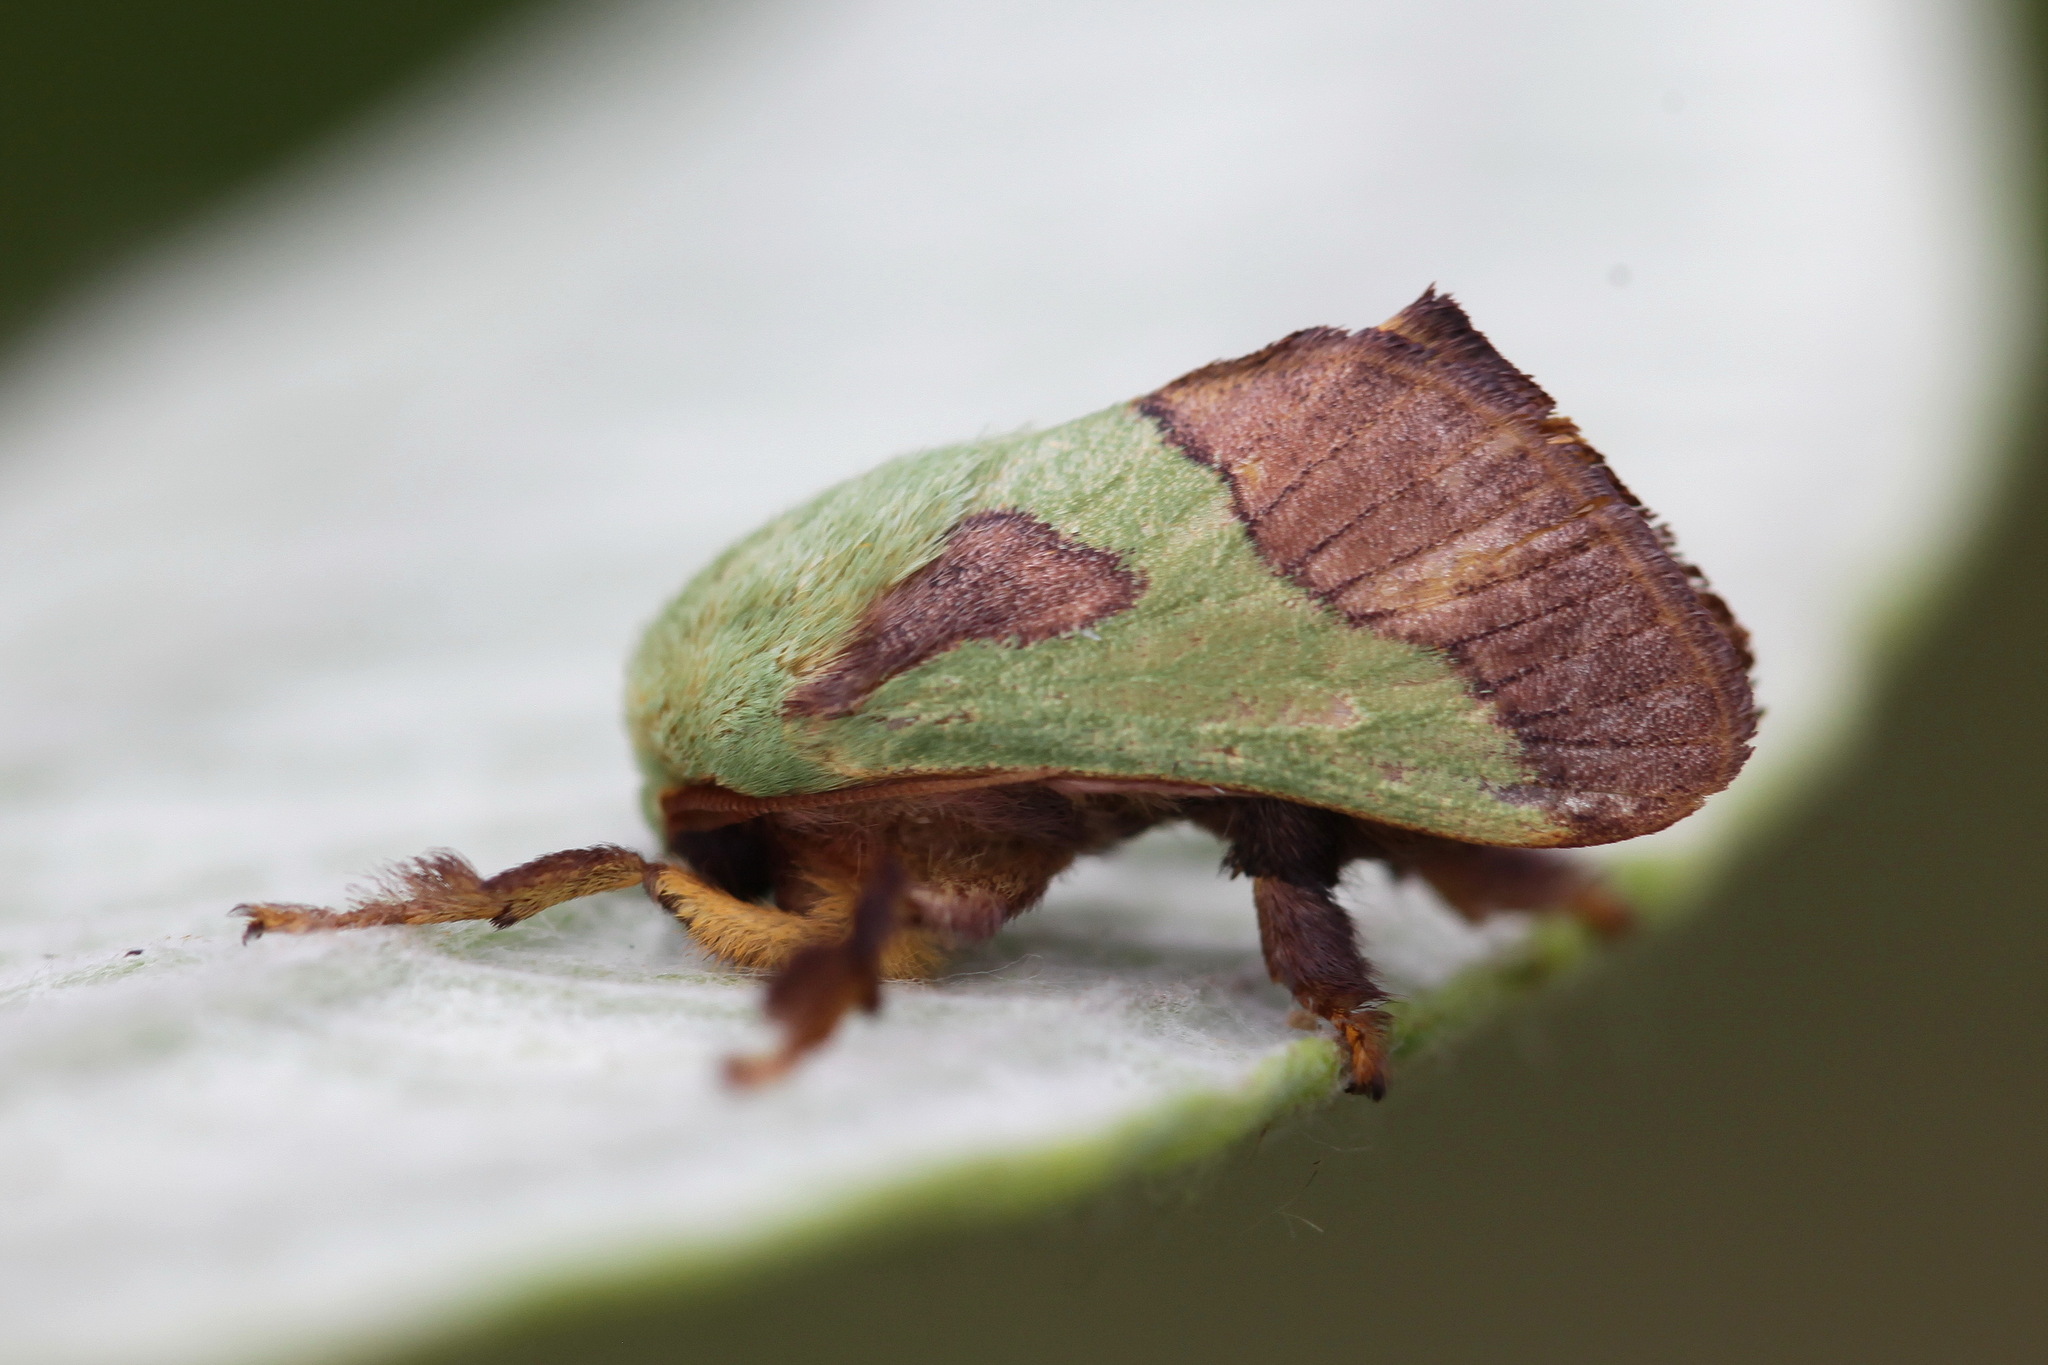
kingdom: Animalia
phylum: Arthropoda
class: Insecta
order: Lepidoptera
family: Limacodidae
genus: Parasa
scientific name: Parasa latistriga
